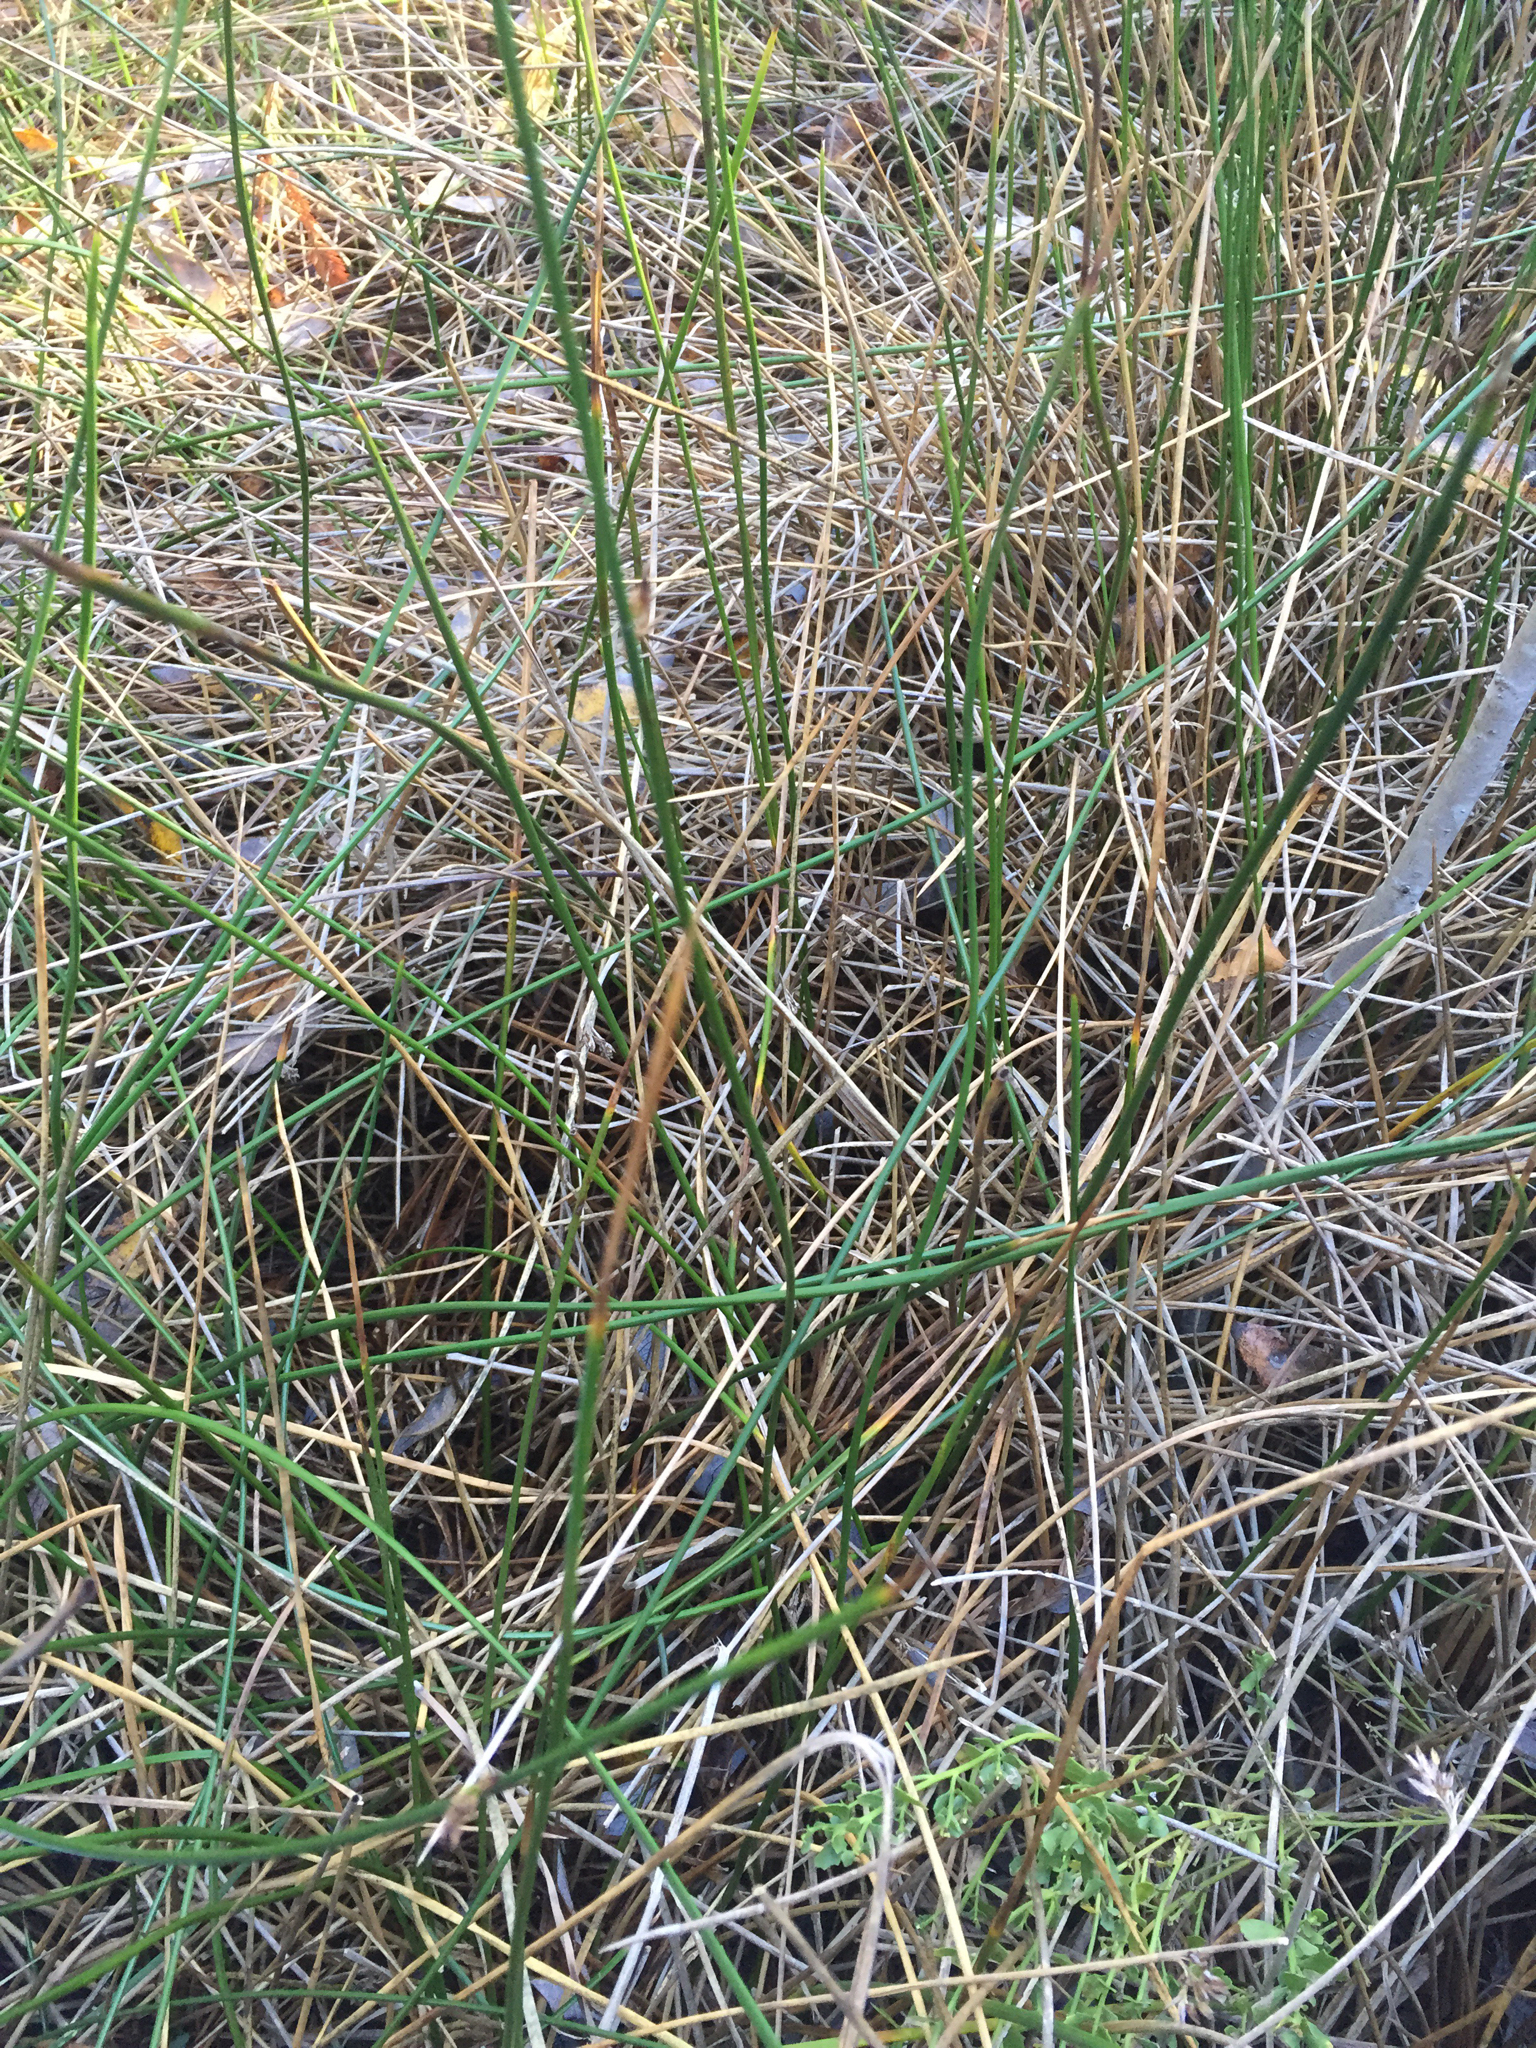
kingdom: Plantae
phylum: Tracheophyta
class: Liliopsida
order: Poales
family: Juncaceae
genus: Juncus
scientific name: Juncus balticus
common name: Baltic rush
